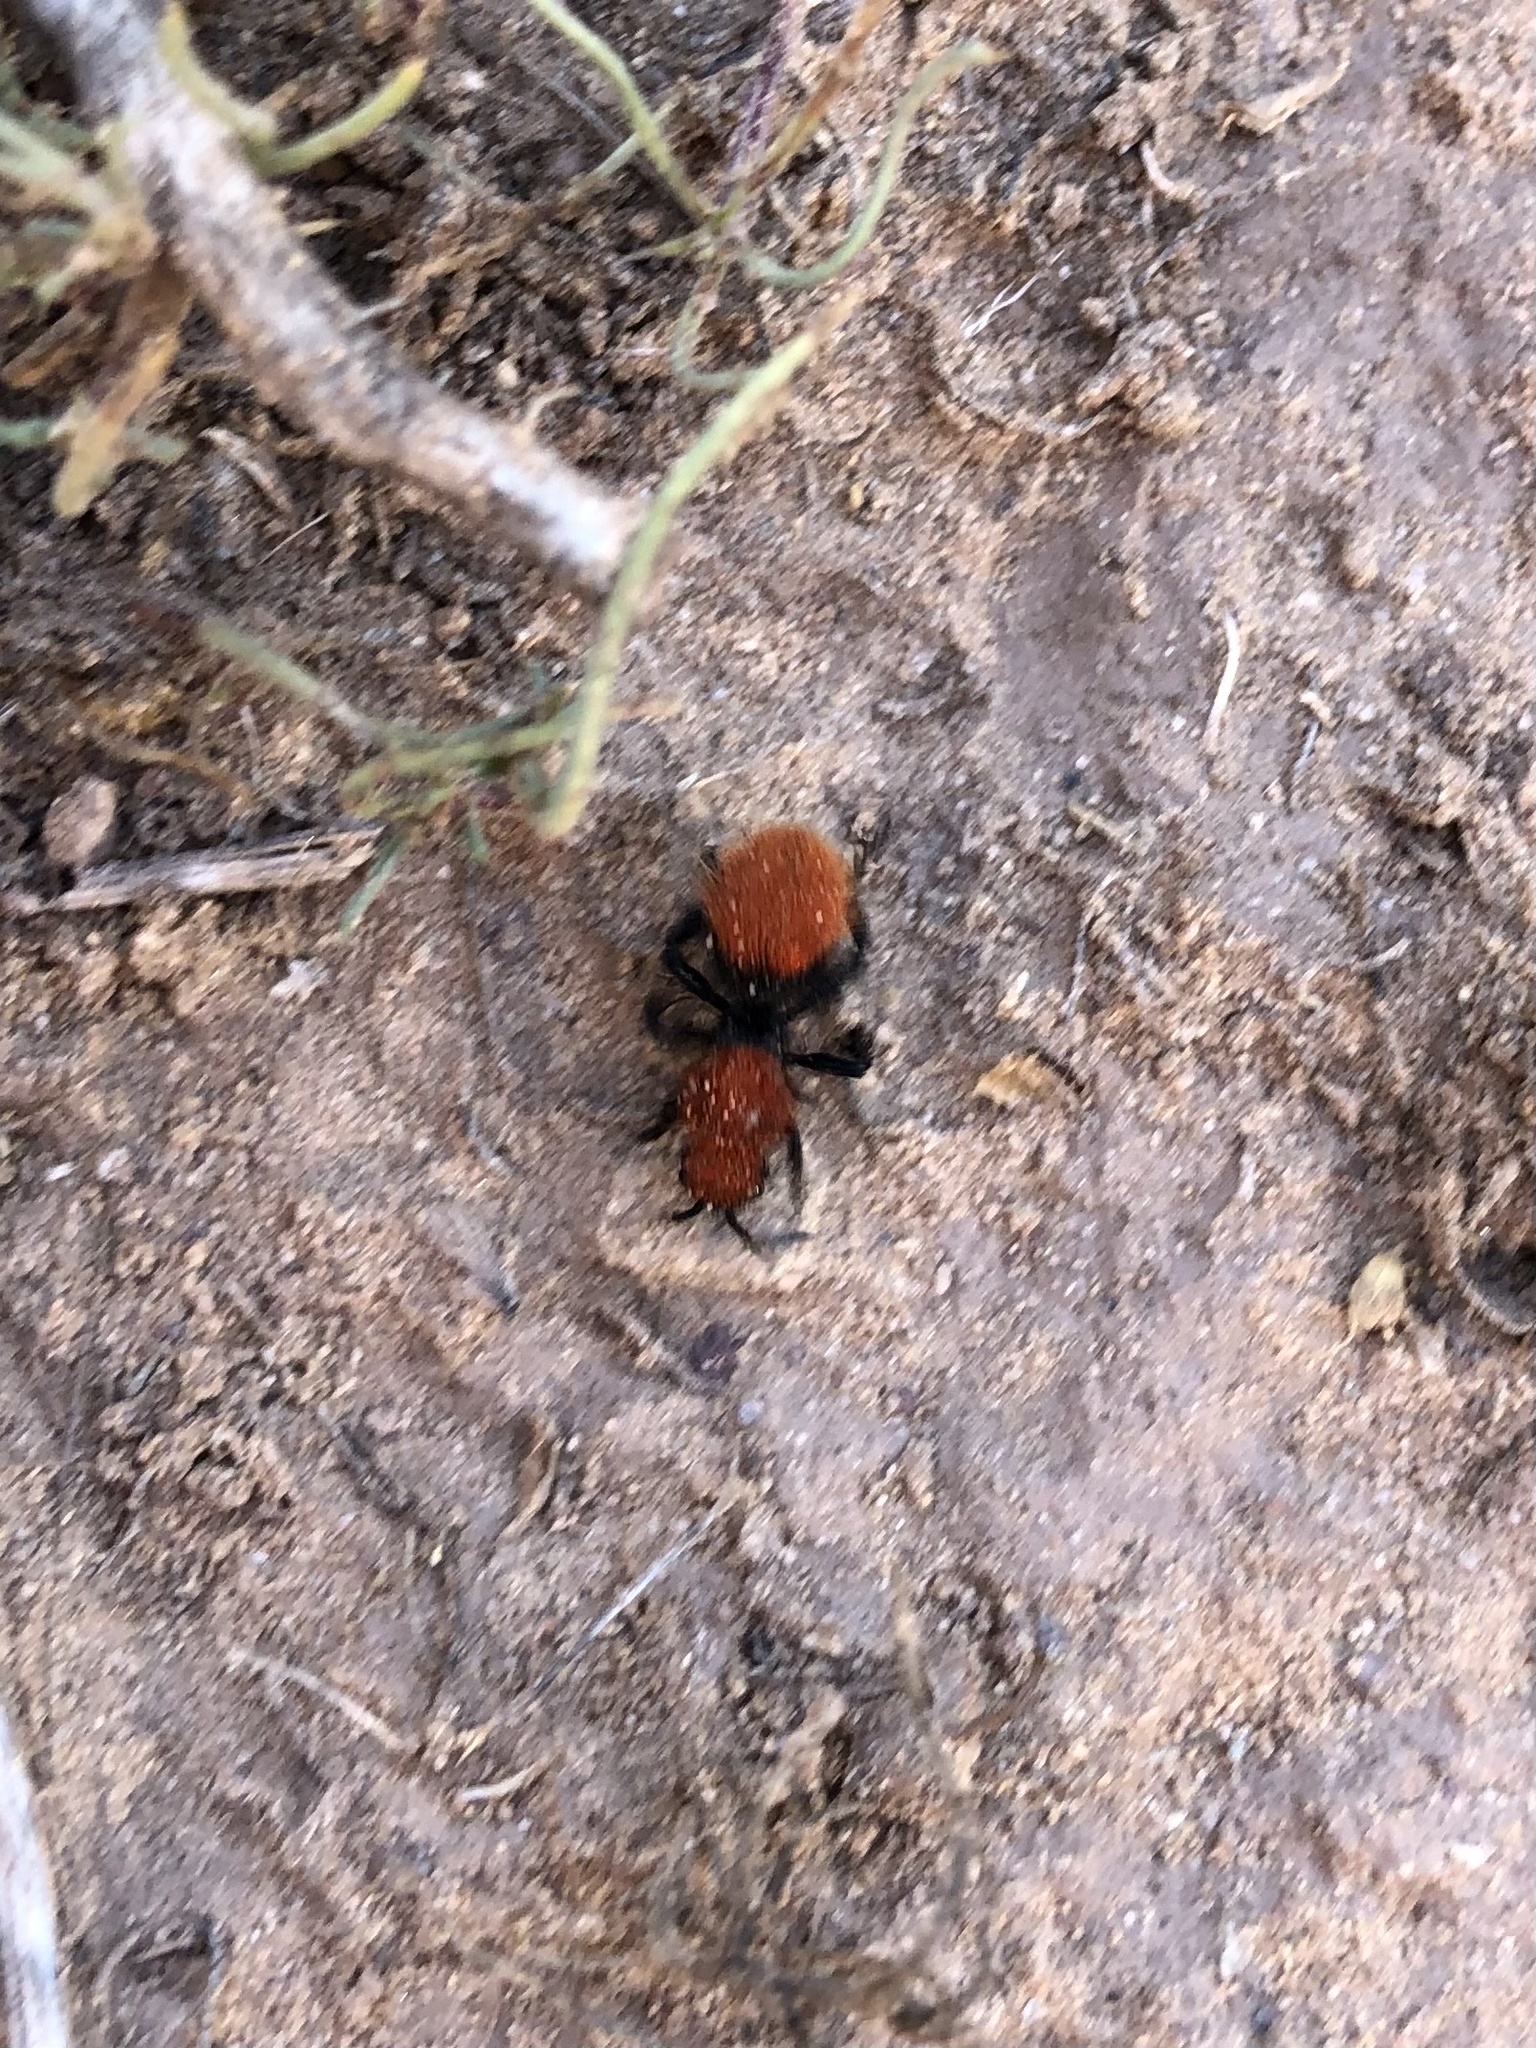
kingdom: Animalia
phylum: Arthropoda
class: Insecta
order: Hymenoptera
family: Mutillidae
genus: Dasymutilla
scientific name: Dasymutilla vestita
